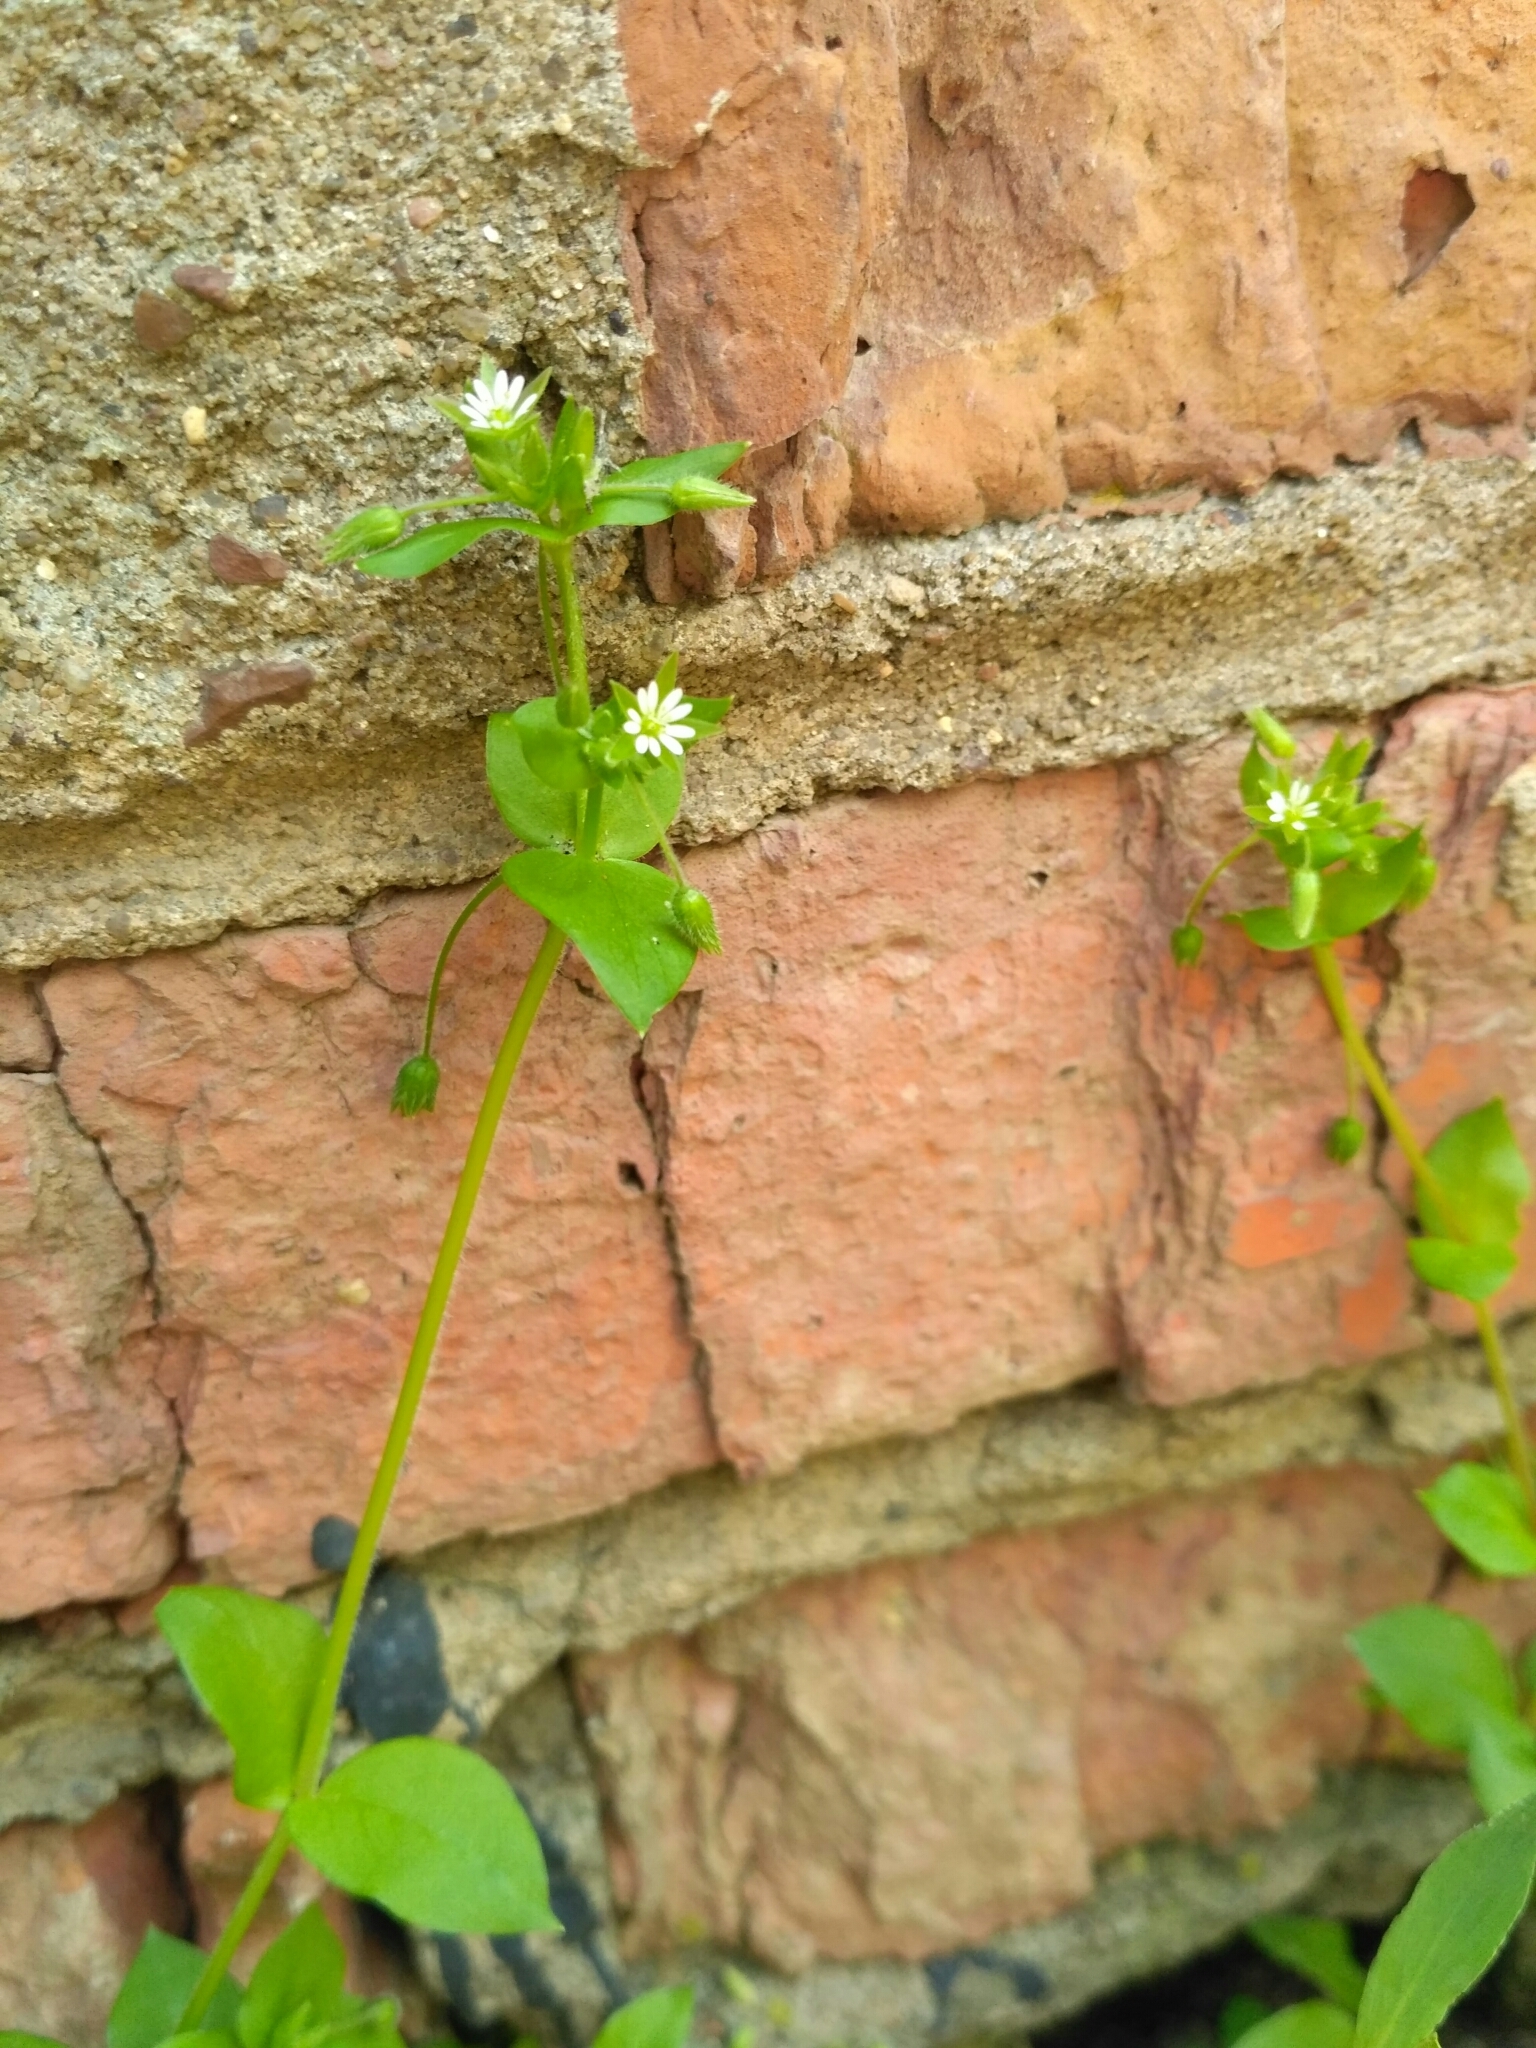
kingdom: Plantae
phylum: Tracheophyta
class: Magnoliopsida
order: Caryophyllales
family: Caryophyllaceae
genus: Stellaria
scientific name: Stellaria media
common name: Common chickweed
